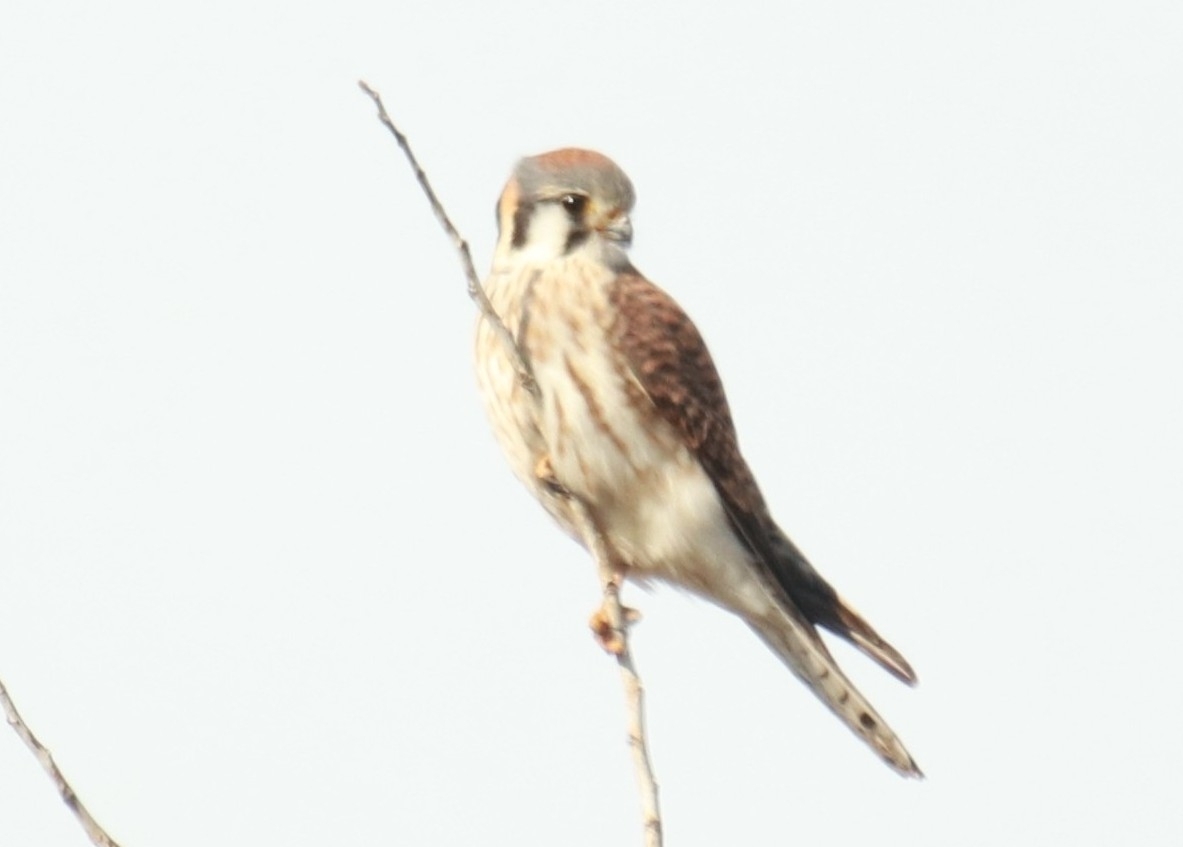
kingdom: Animalia
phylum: Chordata
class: Aves
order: Falconiformes
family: Falconidae
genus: Falco
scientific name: Falco sparverius
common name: American kestrel
